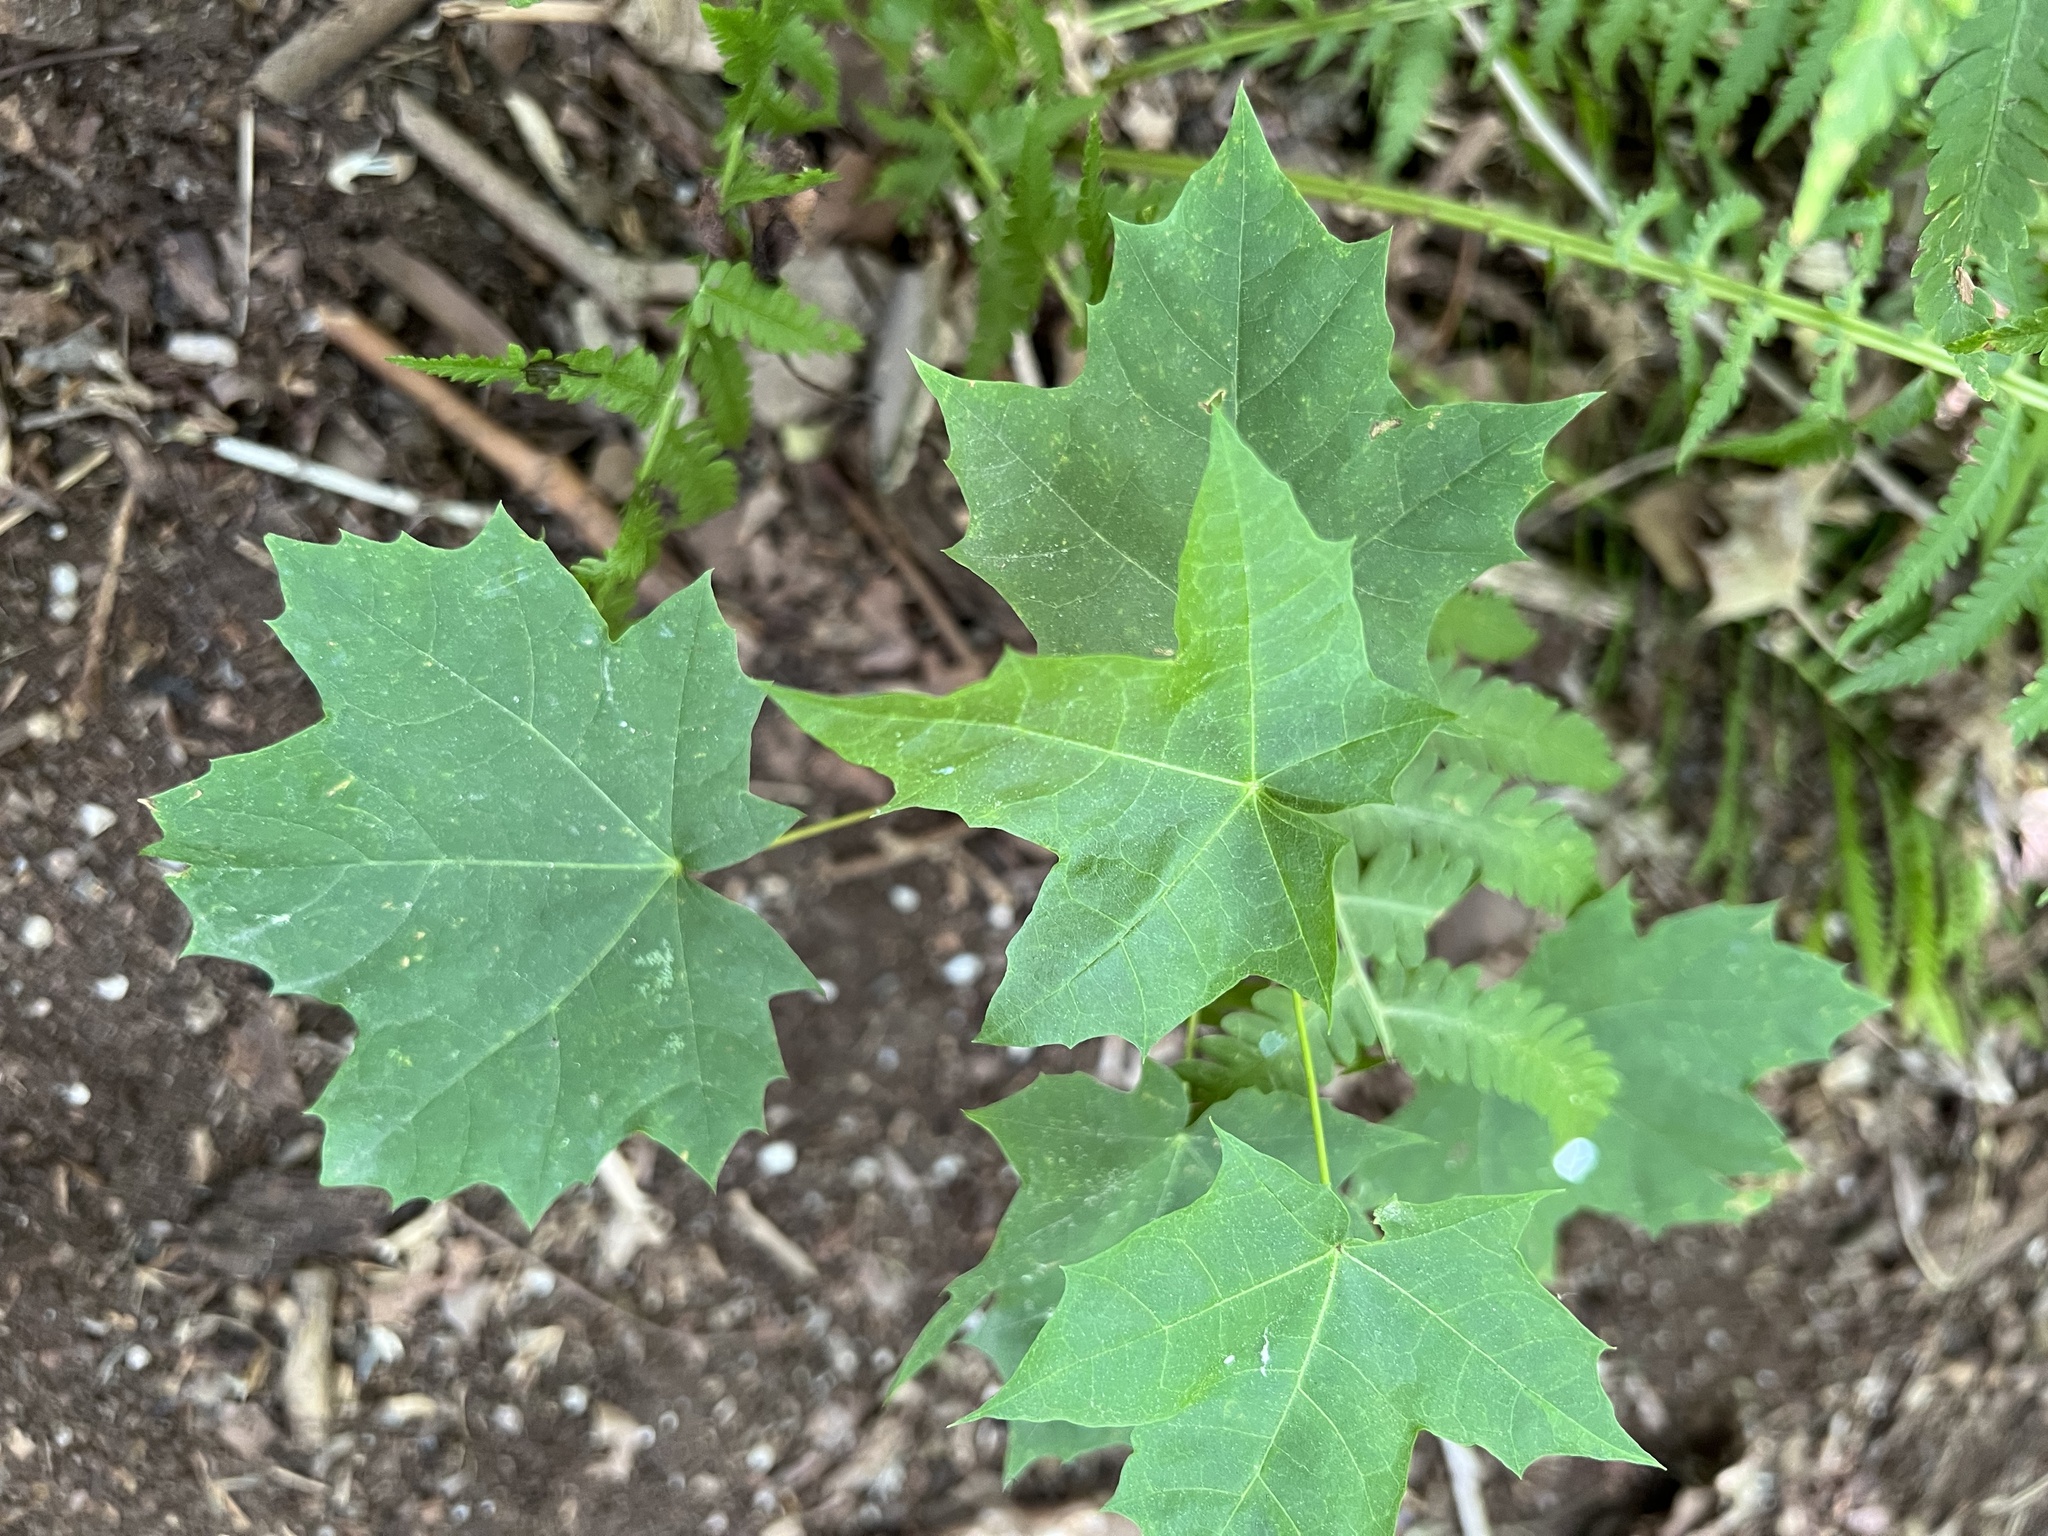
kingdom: Plantae
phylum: Tracheophyta
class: Magnoliopsida
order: Sapindales
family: Sapindaceae
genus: Acer
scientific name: Acer platanoides
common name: Norway maple
